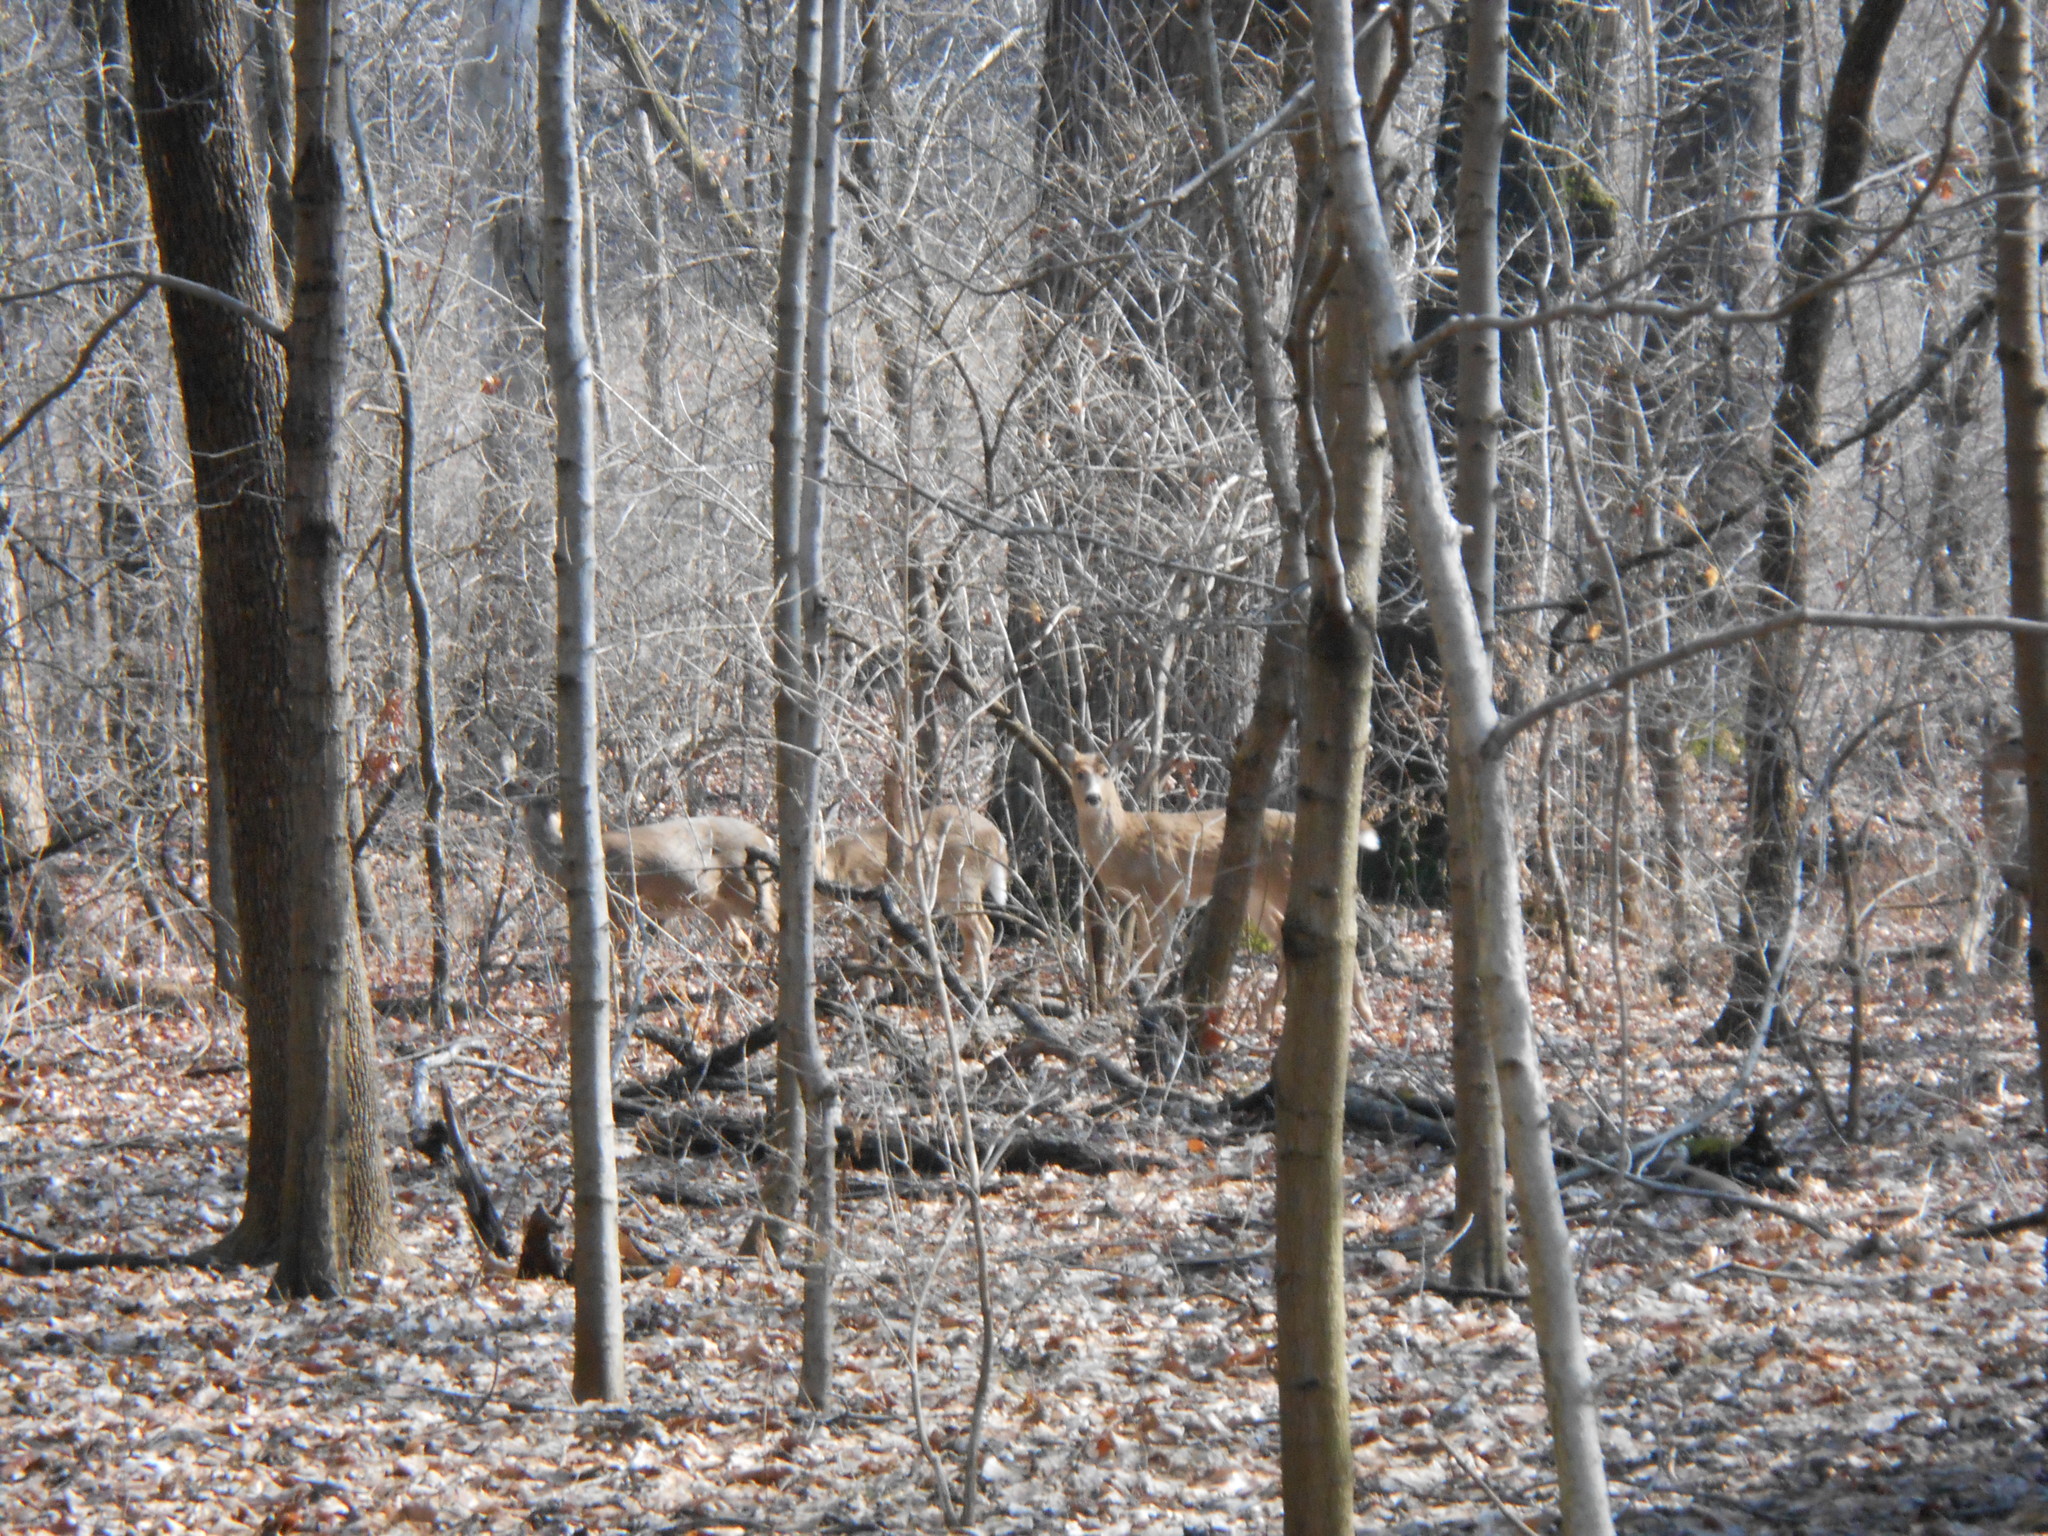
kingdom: Animalia
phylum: Chordata
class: Mammalia
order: Artiodactyla
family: Cervidae
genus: Odocoileus
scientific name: Odocoileus virginianus
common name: White-tailed deer
